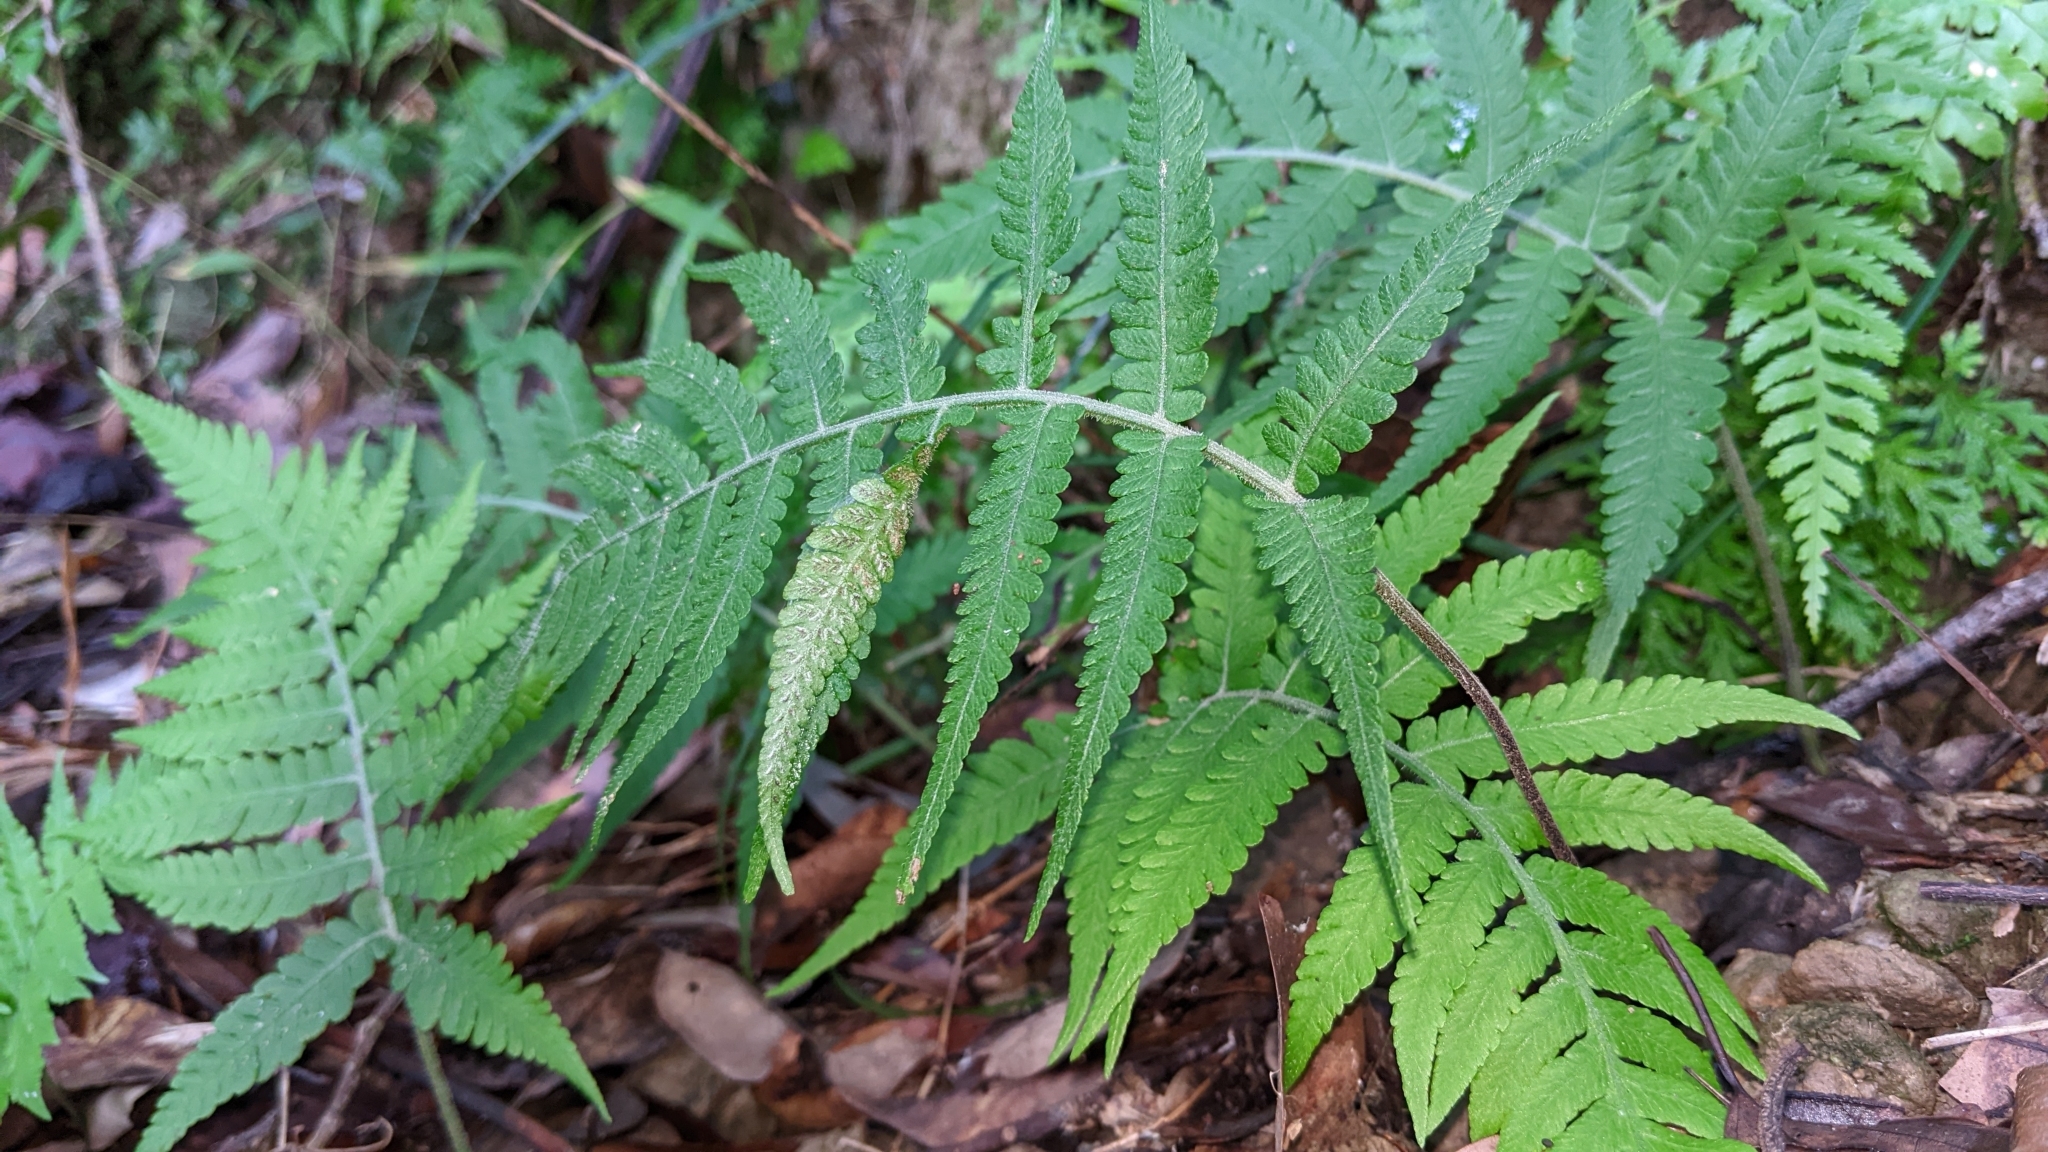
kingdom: Plantae
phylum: Tracheophyta
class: Polypodiopsida
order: Polypodiales
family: Athyriaceae
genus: Deparia
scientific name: Deparia petersenii
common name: Japanese false spleenwort
